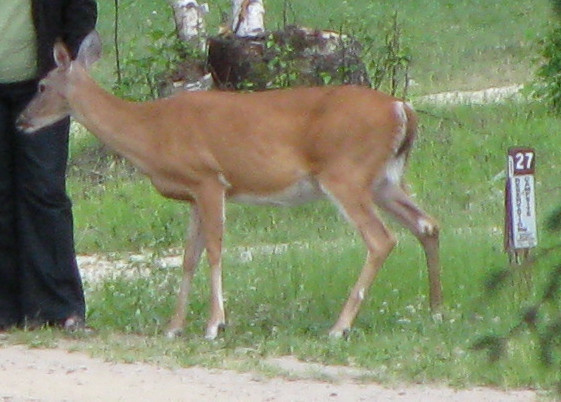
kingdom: Animalia
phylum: Chordata
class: Mammalia
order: Artiodactyla
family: Cervidae
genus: Odocoileus
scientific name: Odocoileus virginianus
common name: White-tailed deer
